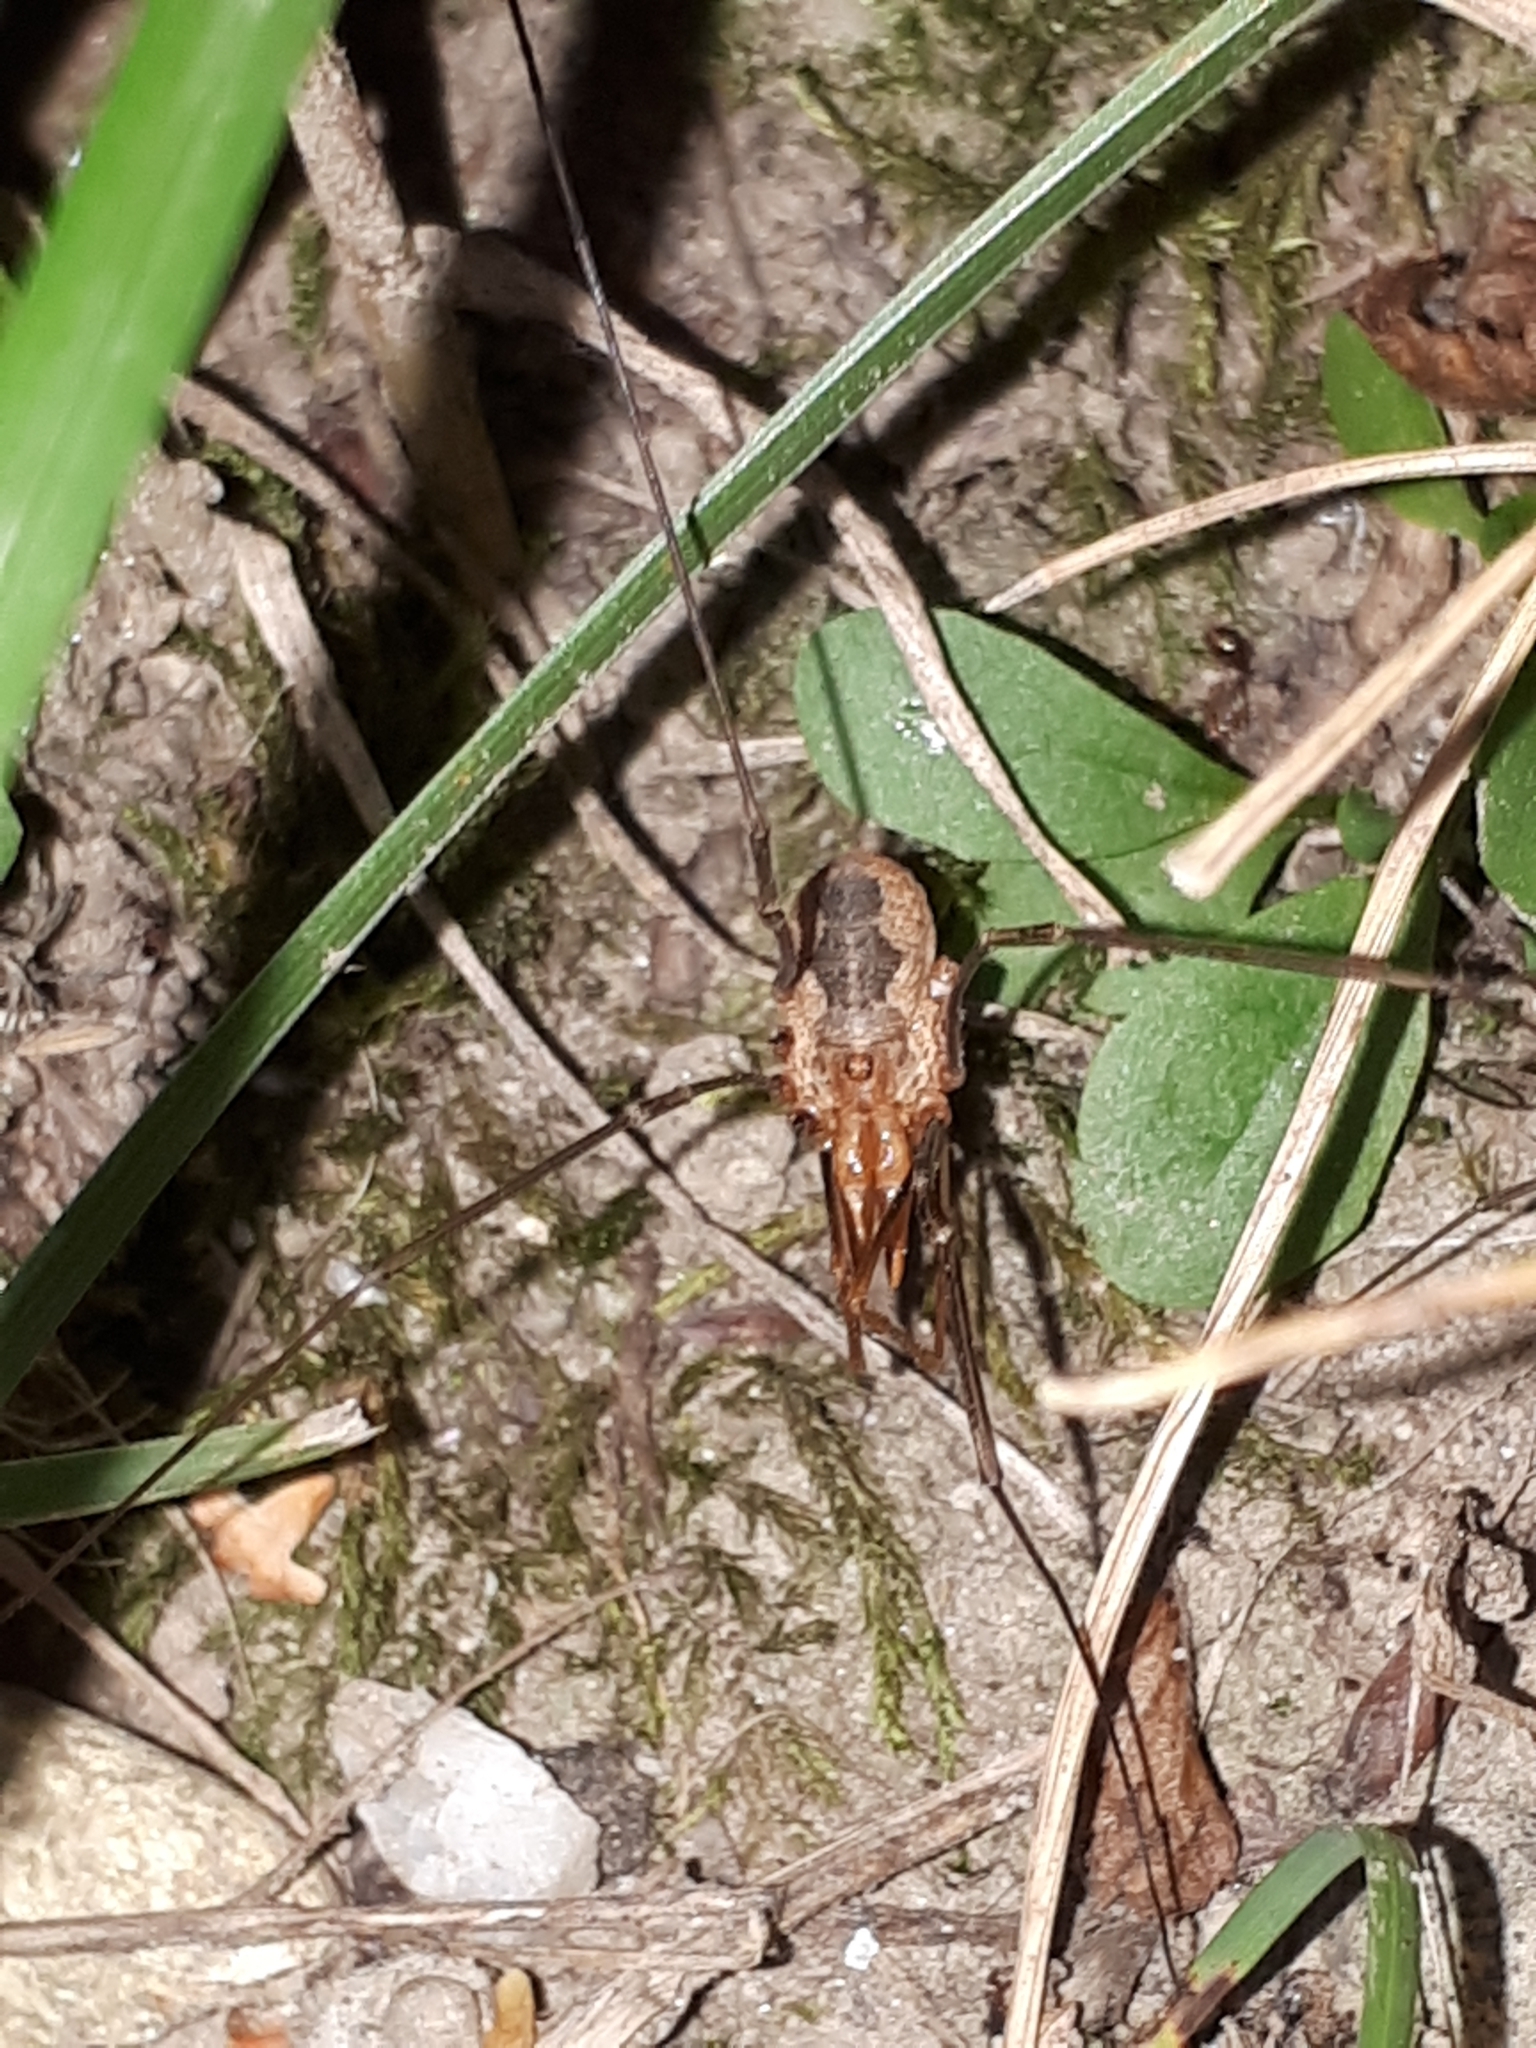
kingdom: Animalia
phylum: Arthropoda
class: Arachnida
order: Opiliones
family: Phalangiidae
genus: Phalangium
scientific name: Phalangium opilio
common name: Daddy longleg
